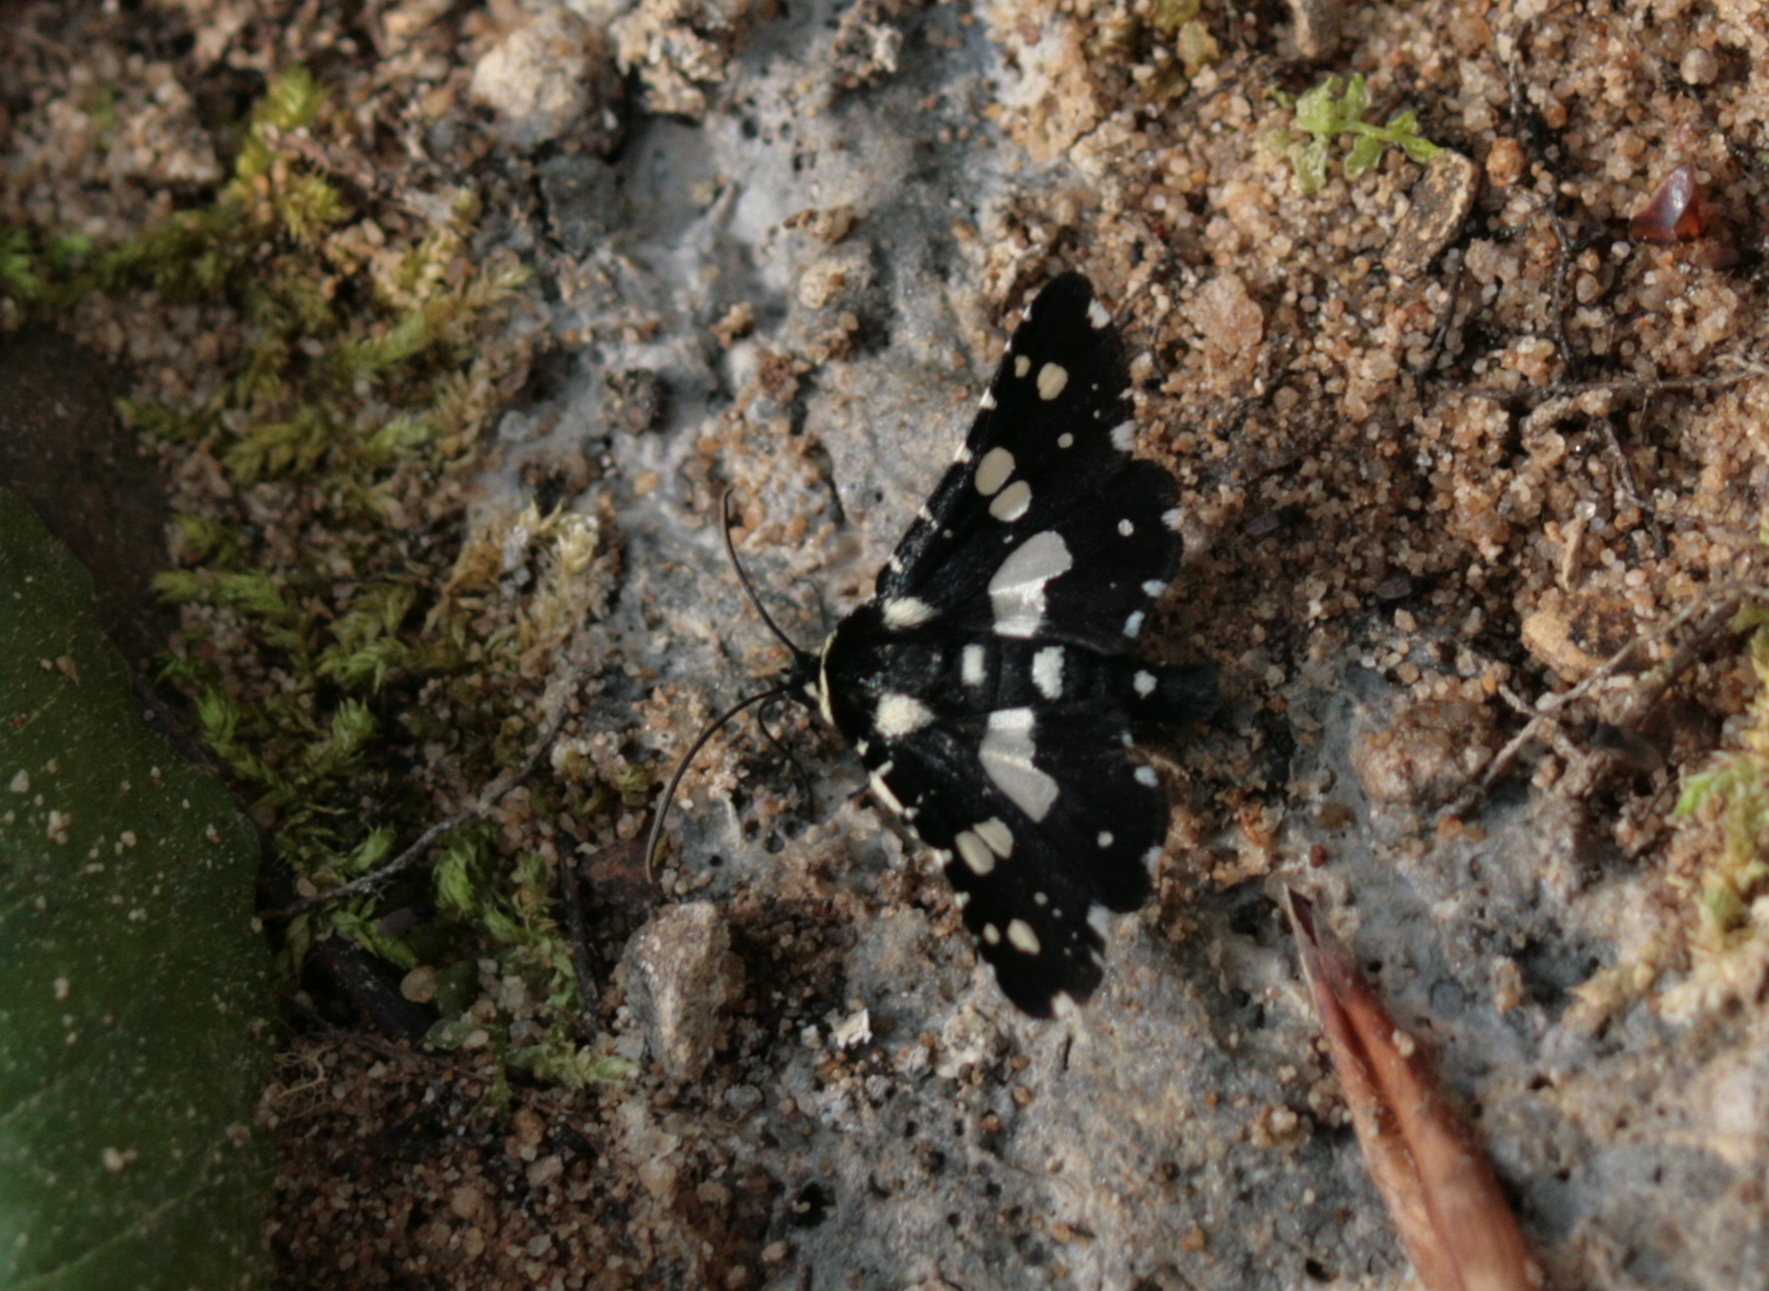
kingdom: Animalia
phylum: Arthropoda
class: Insecta
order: Lepidoptera
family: Thyrididae
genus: Pseudothyris
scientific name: Pseudothyris sepulchralis
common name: Mournful thyris moth
